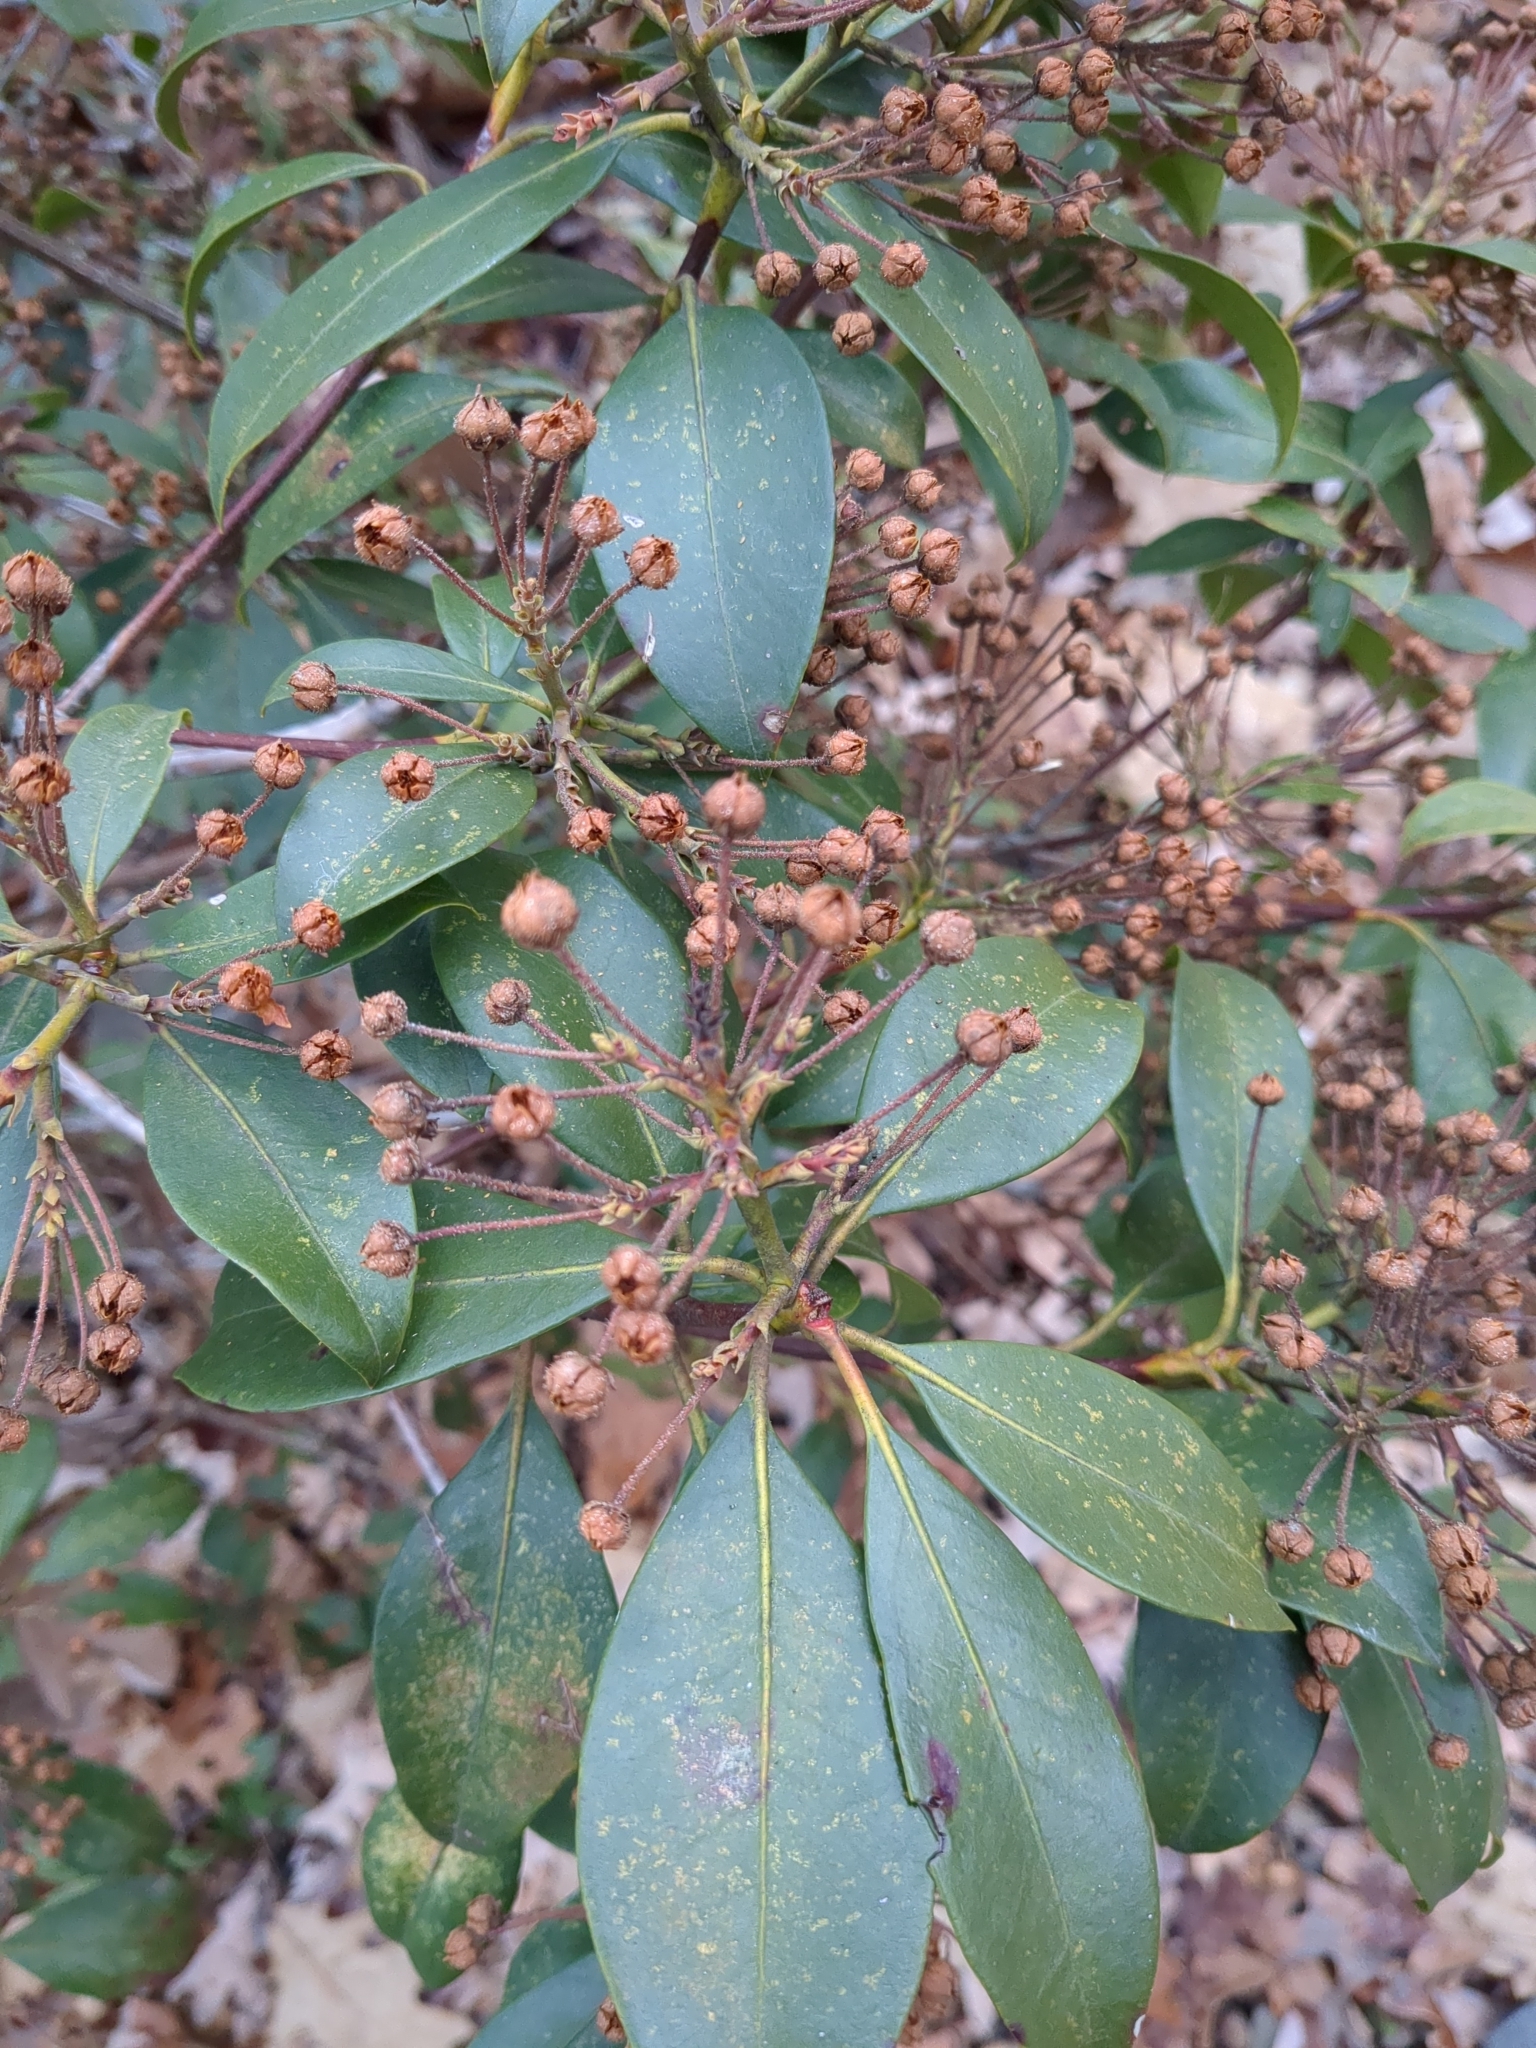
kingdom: Plantae
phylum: Tracheophyta
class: Magnoliopsida
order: Ericales
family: Ericaceae
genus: Kalmia
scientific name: Kalmia latifolia
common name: Mountain-laurel
